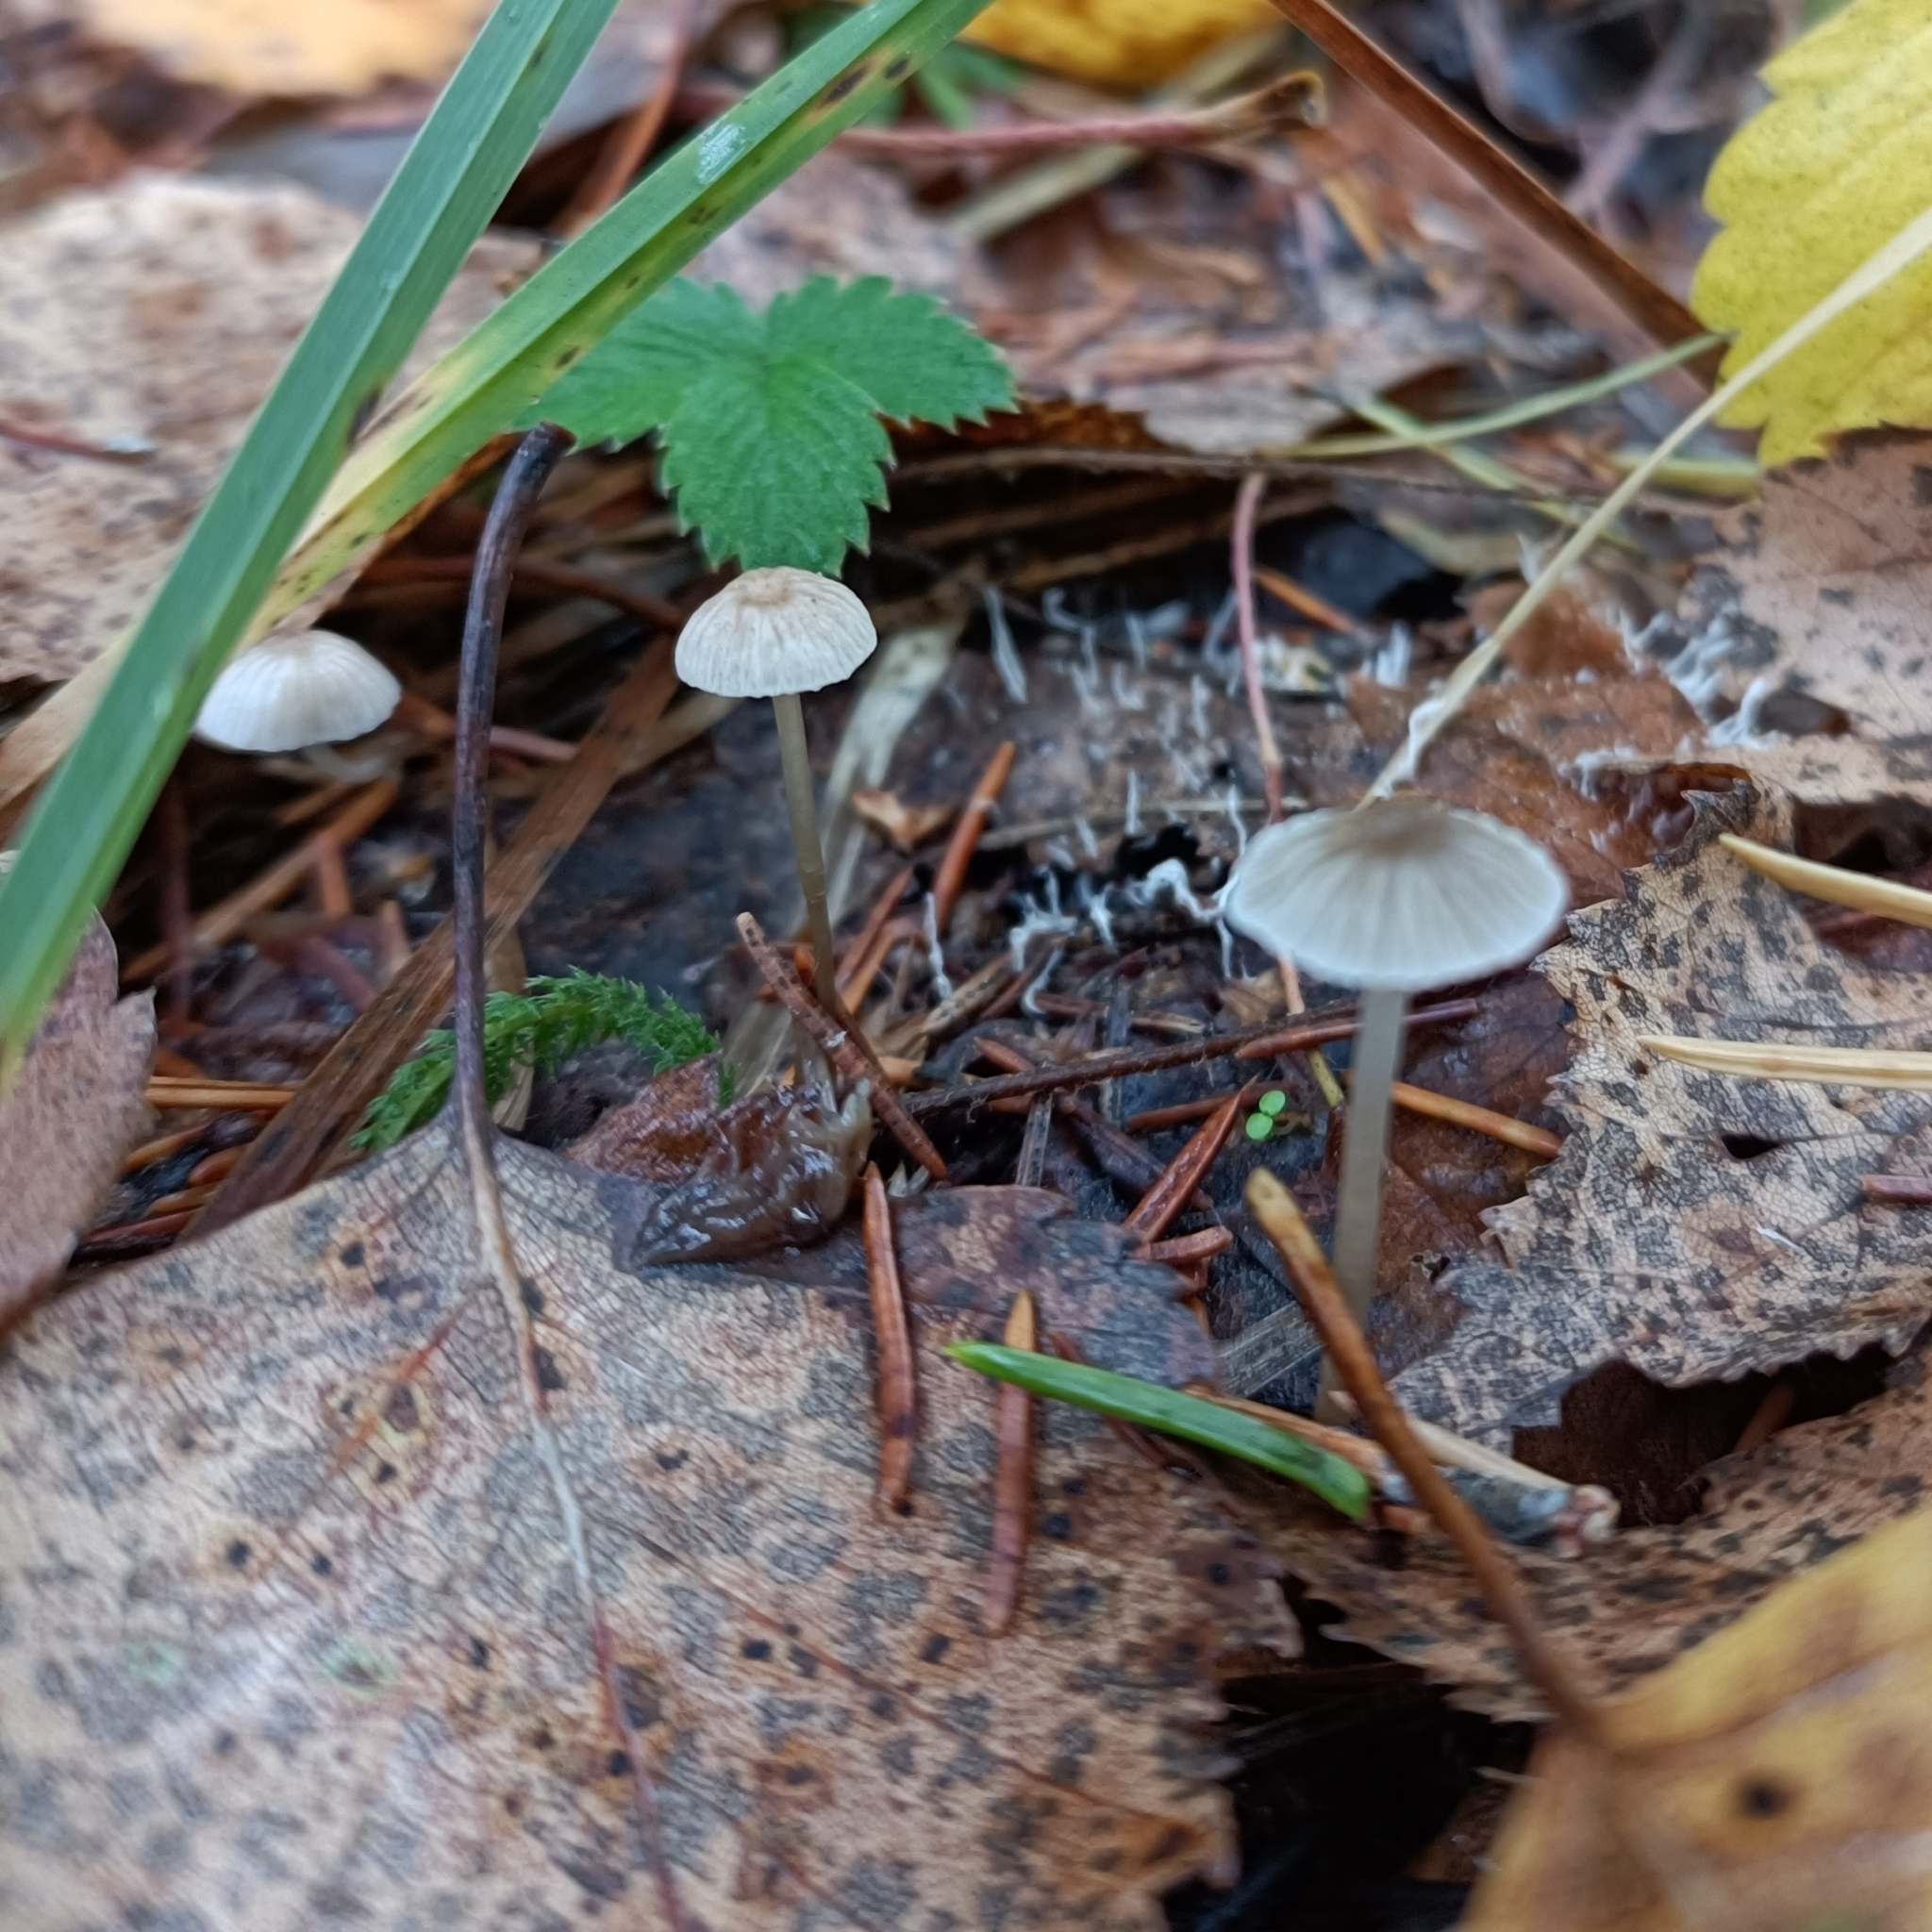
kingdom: Fungi
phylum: Basidiomycota
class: Agaricomycetes
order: Agaricales
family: Mycenaceae
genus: Mycena
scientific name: Mycena galopus
